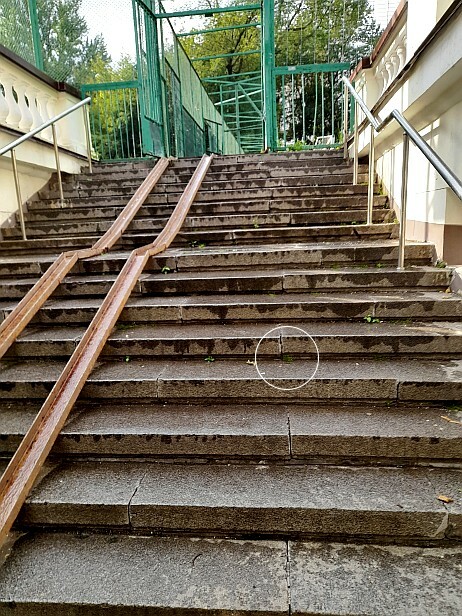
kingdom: Plantae
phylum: Tracheophyta
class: Magnoliopsida
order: Caryophyllales
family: Caryophyllaceae
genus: Sagina
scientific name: Sagina procumbens
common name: Procumbent pearlwort
